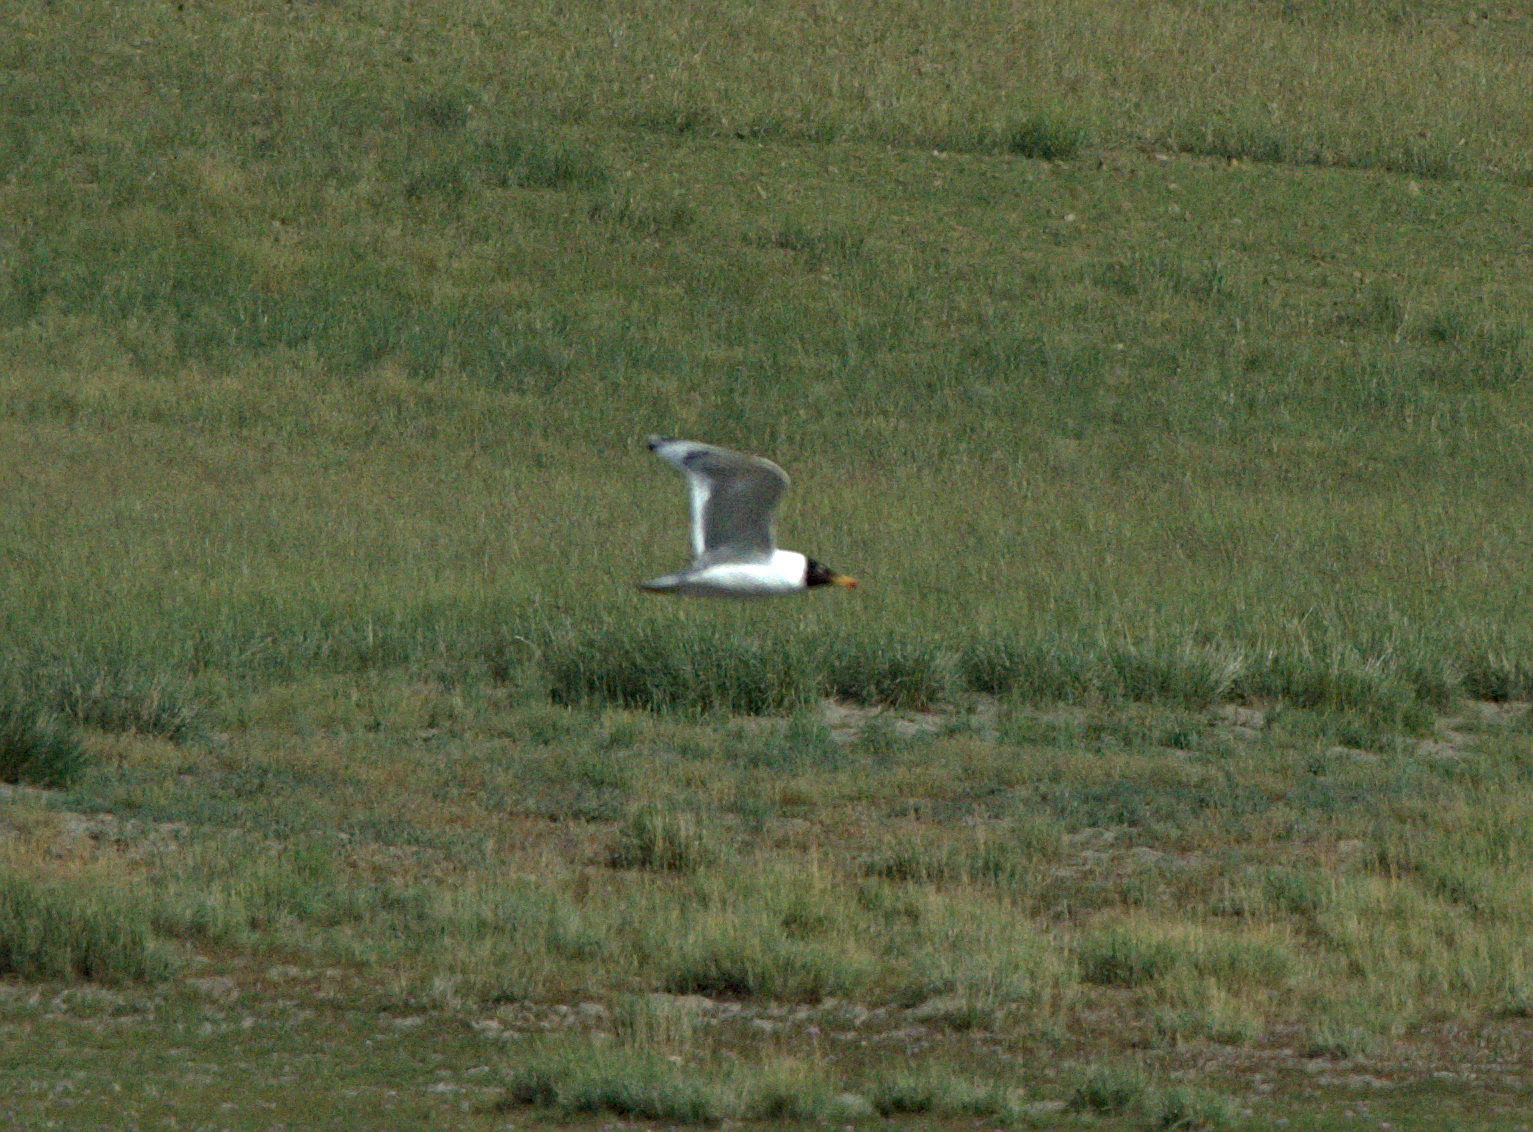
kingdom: Animalia
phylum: Chordata
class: Aves
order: Charadriiformes
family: Laridae
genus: Ichthyaetus
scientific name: Ichthyaetus ichthyaetus
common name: Pallas's gull
